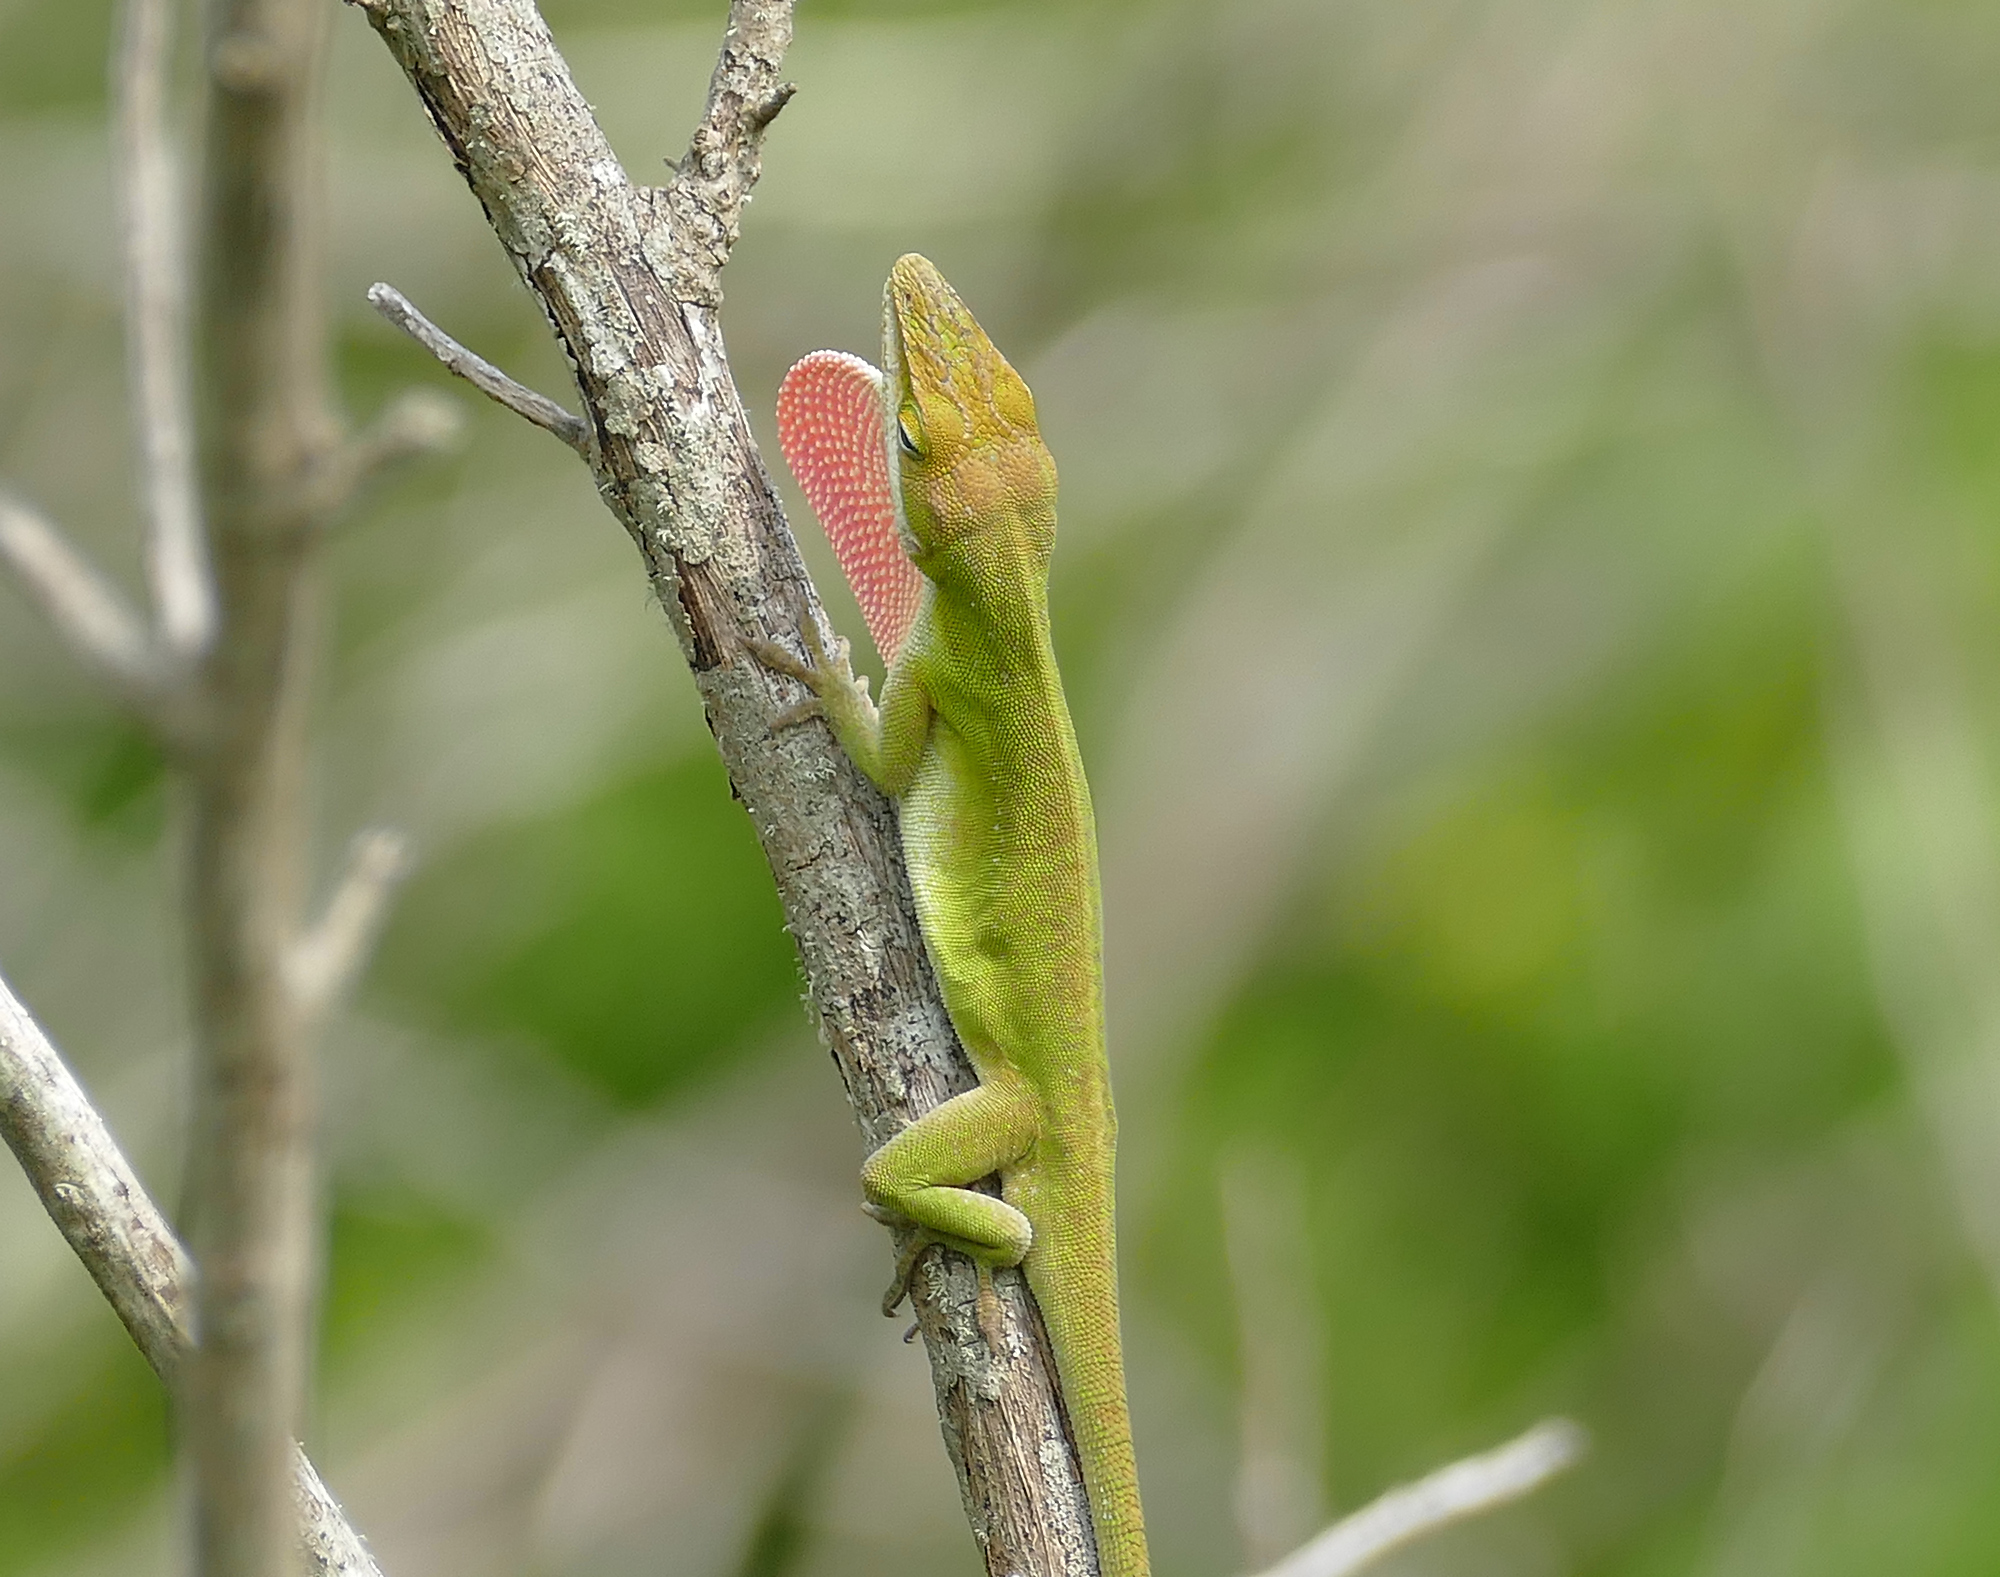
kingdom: Animalia
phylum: Chordata
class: Squamata
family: Dactyloidae
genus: Anolis
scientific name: Anolis carolinensis
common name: Green anole
